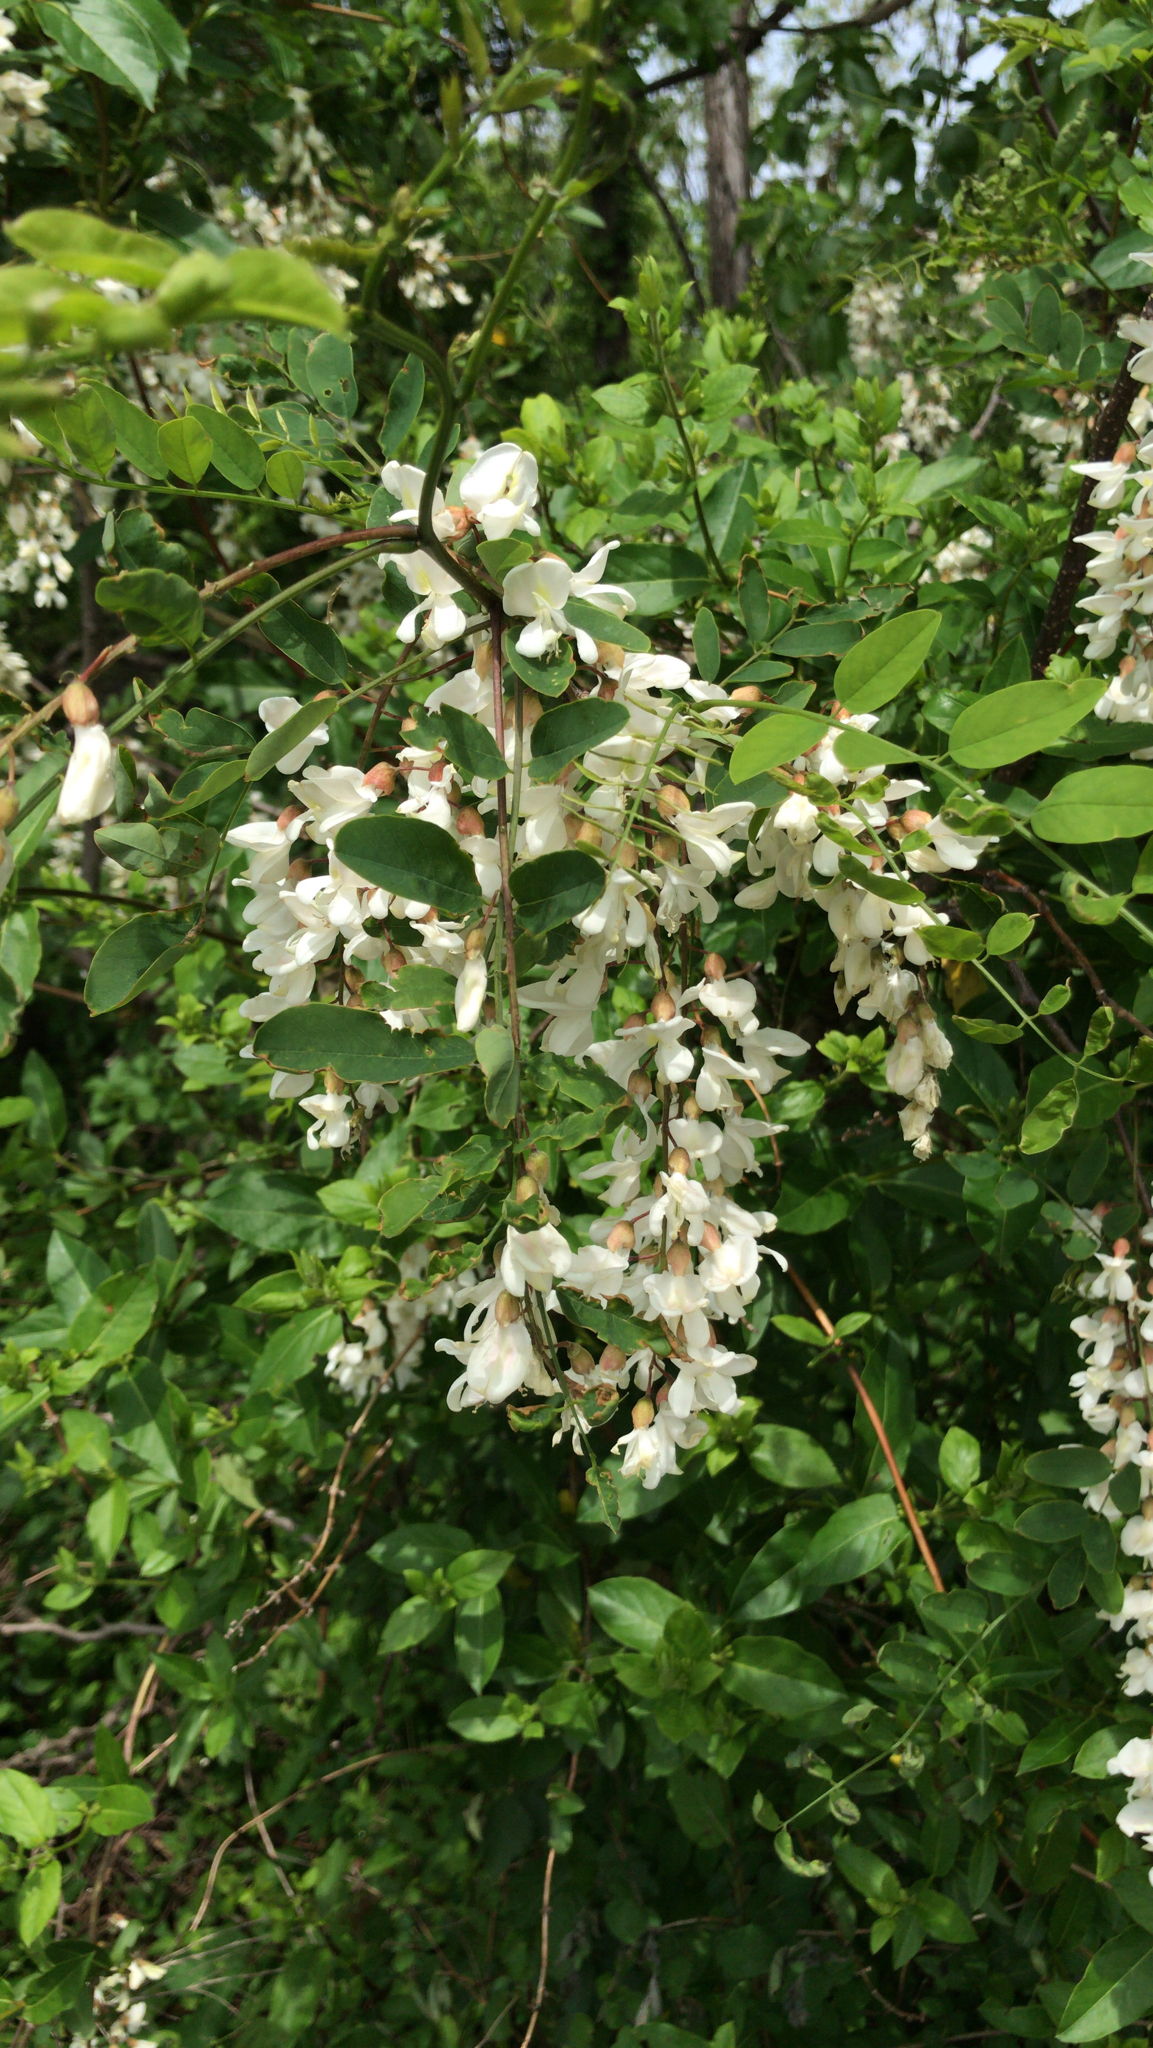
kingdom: Plantae
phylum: Tracheophyta
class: Magnoliopsida
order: Fabales
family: Fabaceae
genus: Robinia
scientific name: Robinia pseudoacacia
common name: Black locust
